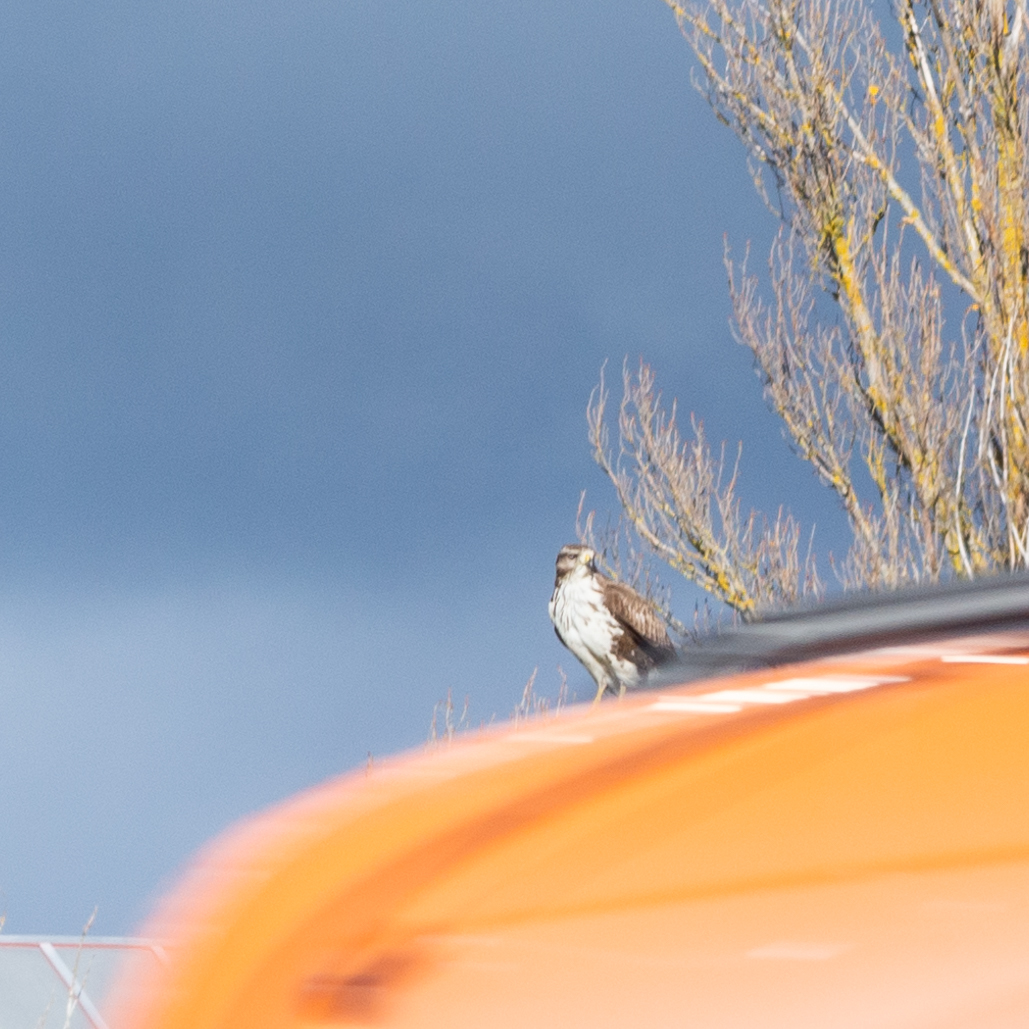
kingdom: Animalia
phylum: Chordata
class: Aves
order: Accipitriformes
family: Accipitridae
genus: Buteo
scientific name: Buteo buteo
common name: Common buzzard
